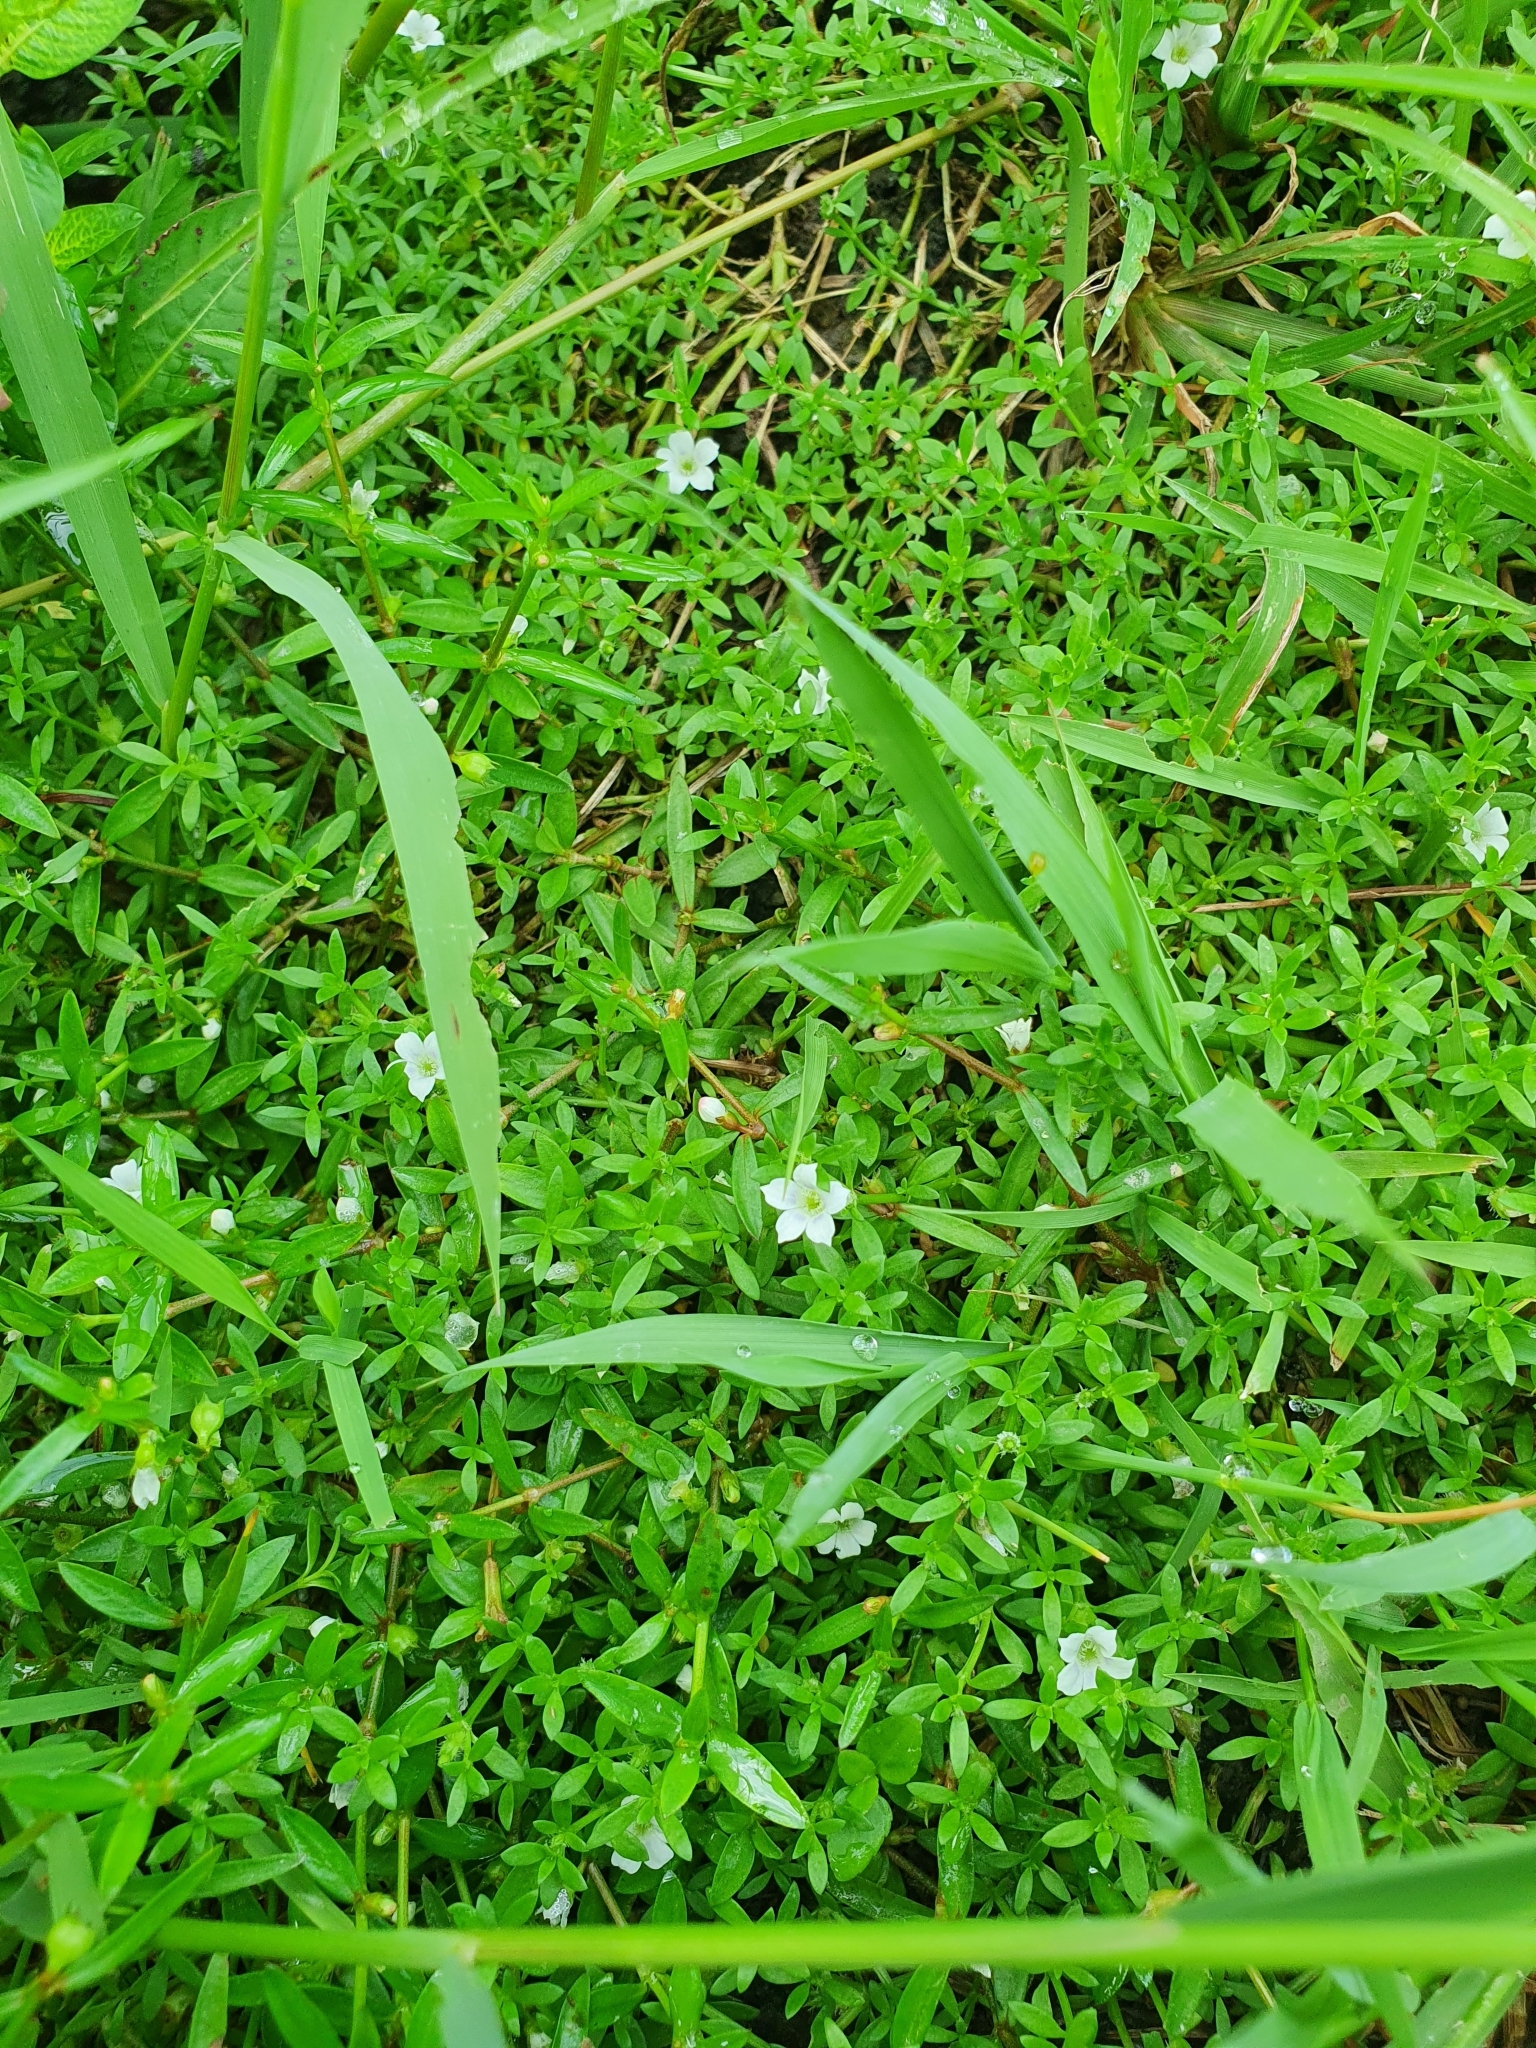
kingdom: Plantae
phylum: Tracheophyta
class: Magnoliopsida
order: Gentianales
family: Rubiaceae
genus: Dentella
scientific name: Dentella repens
